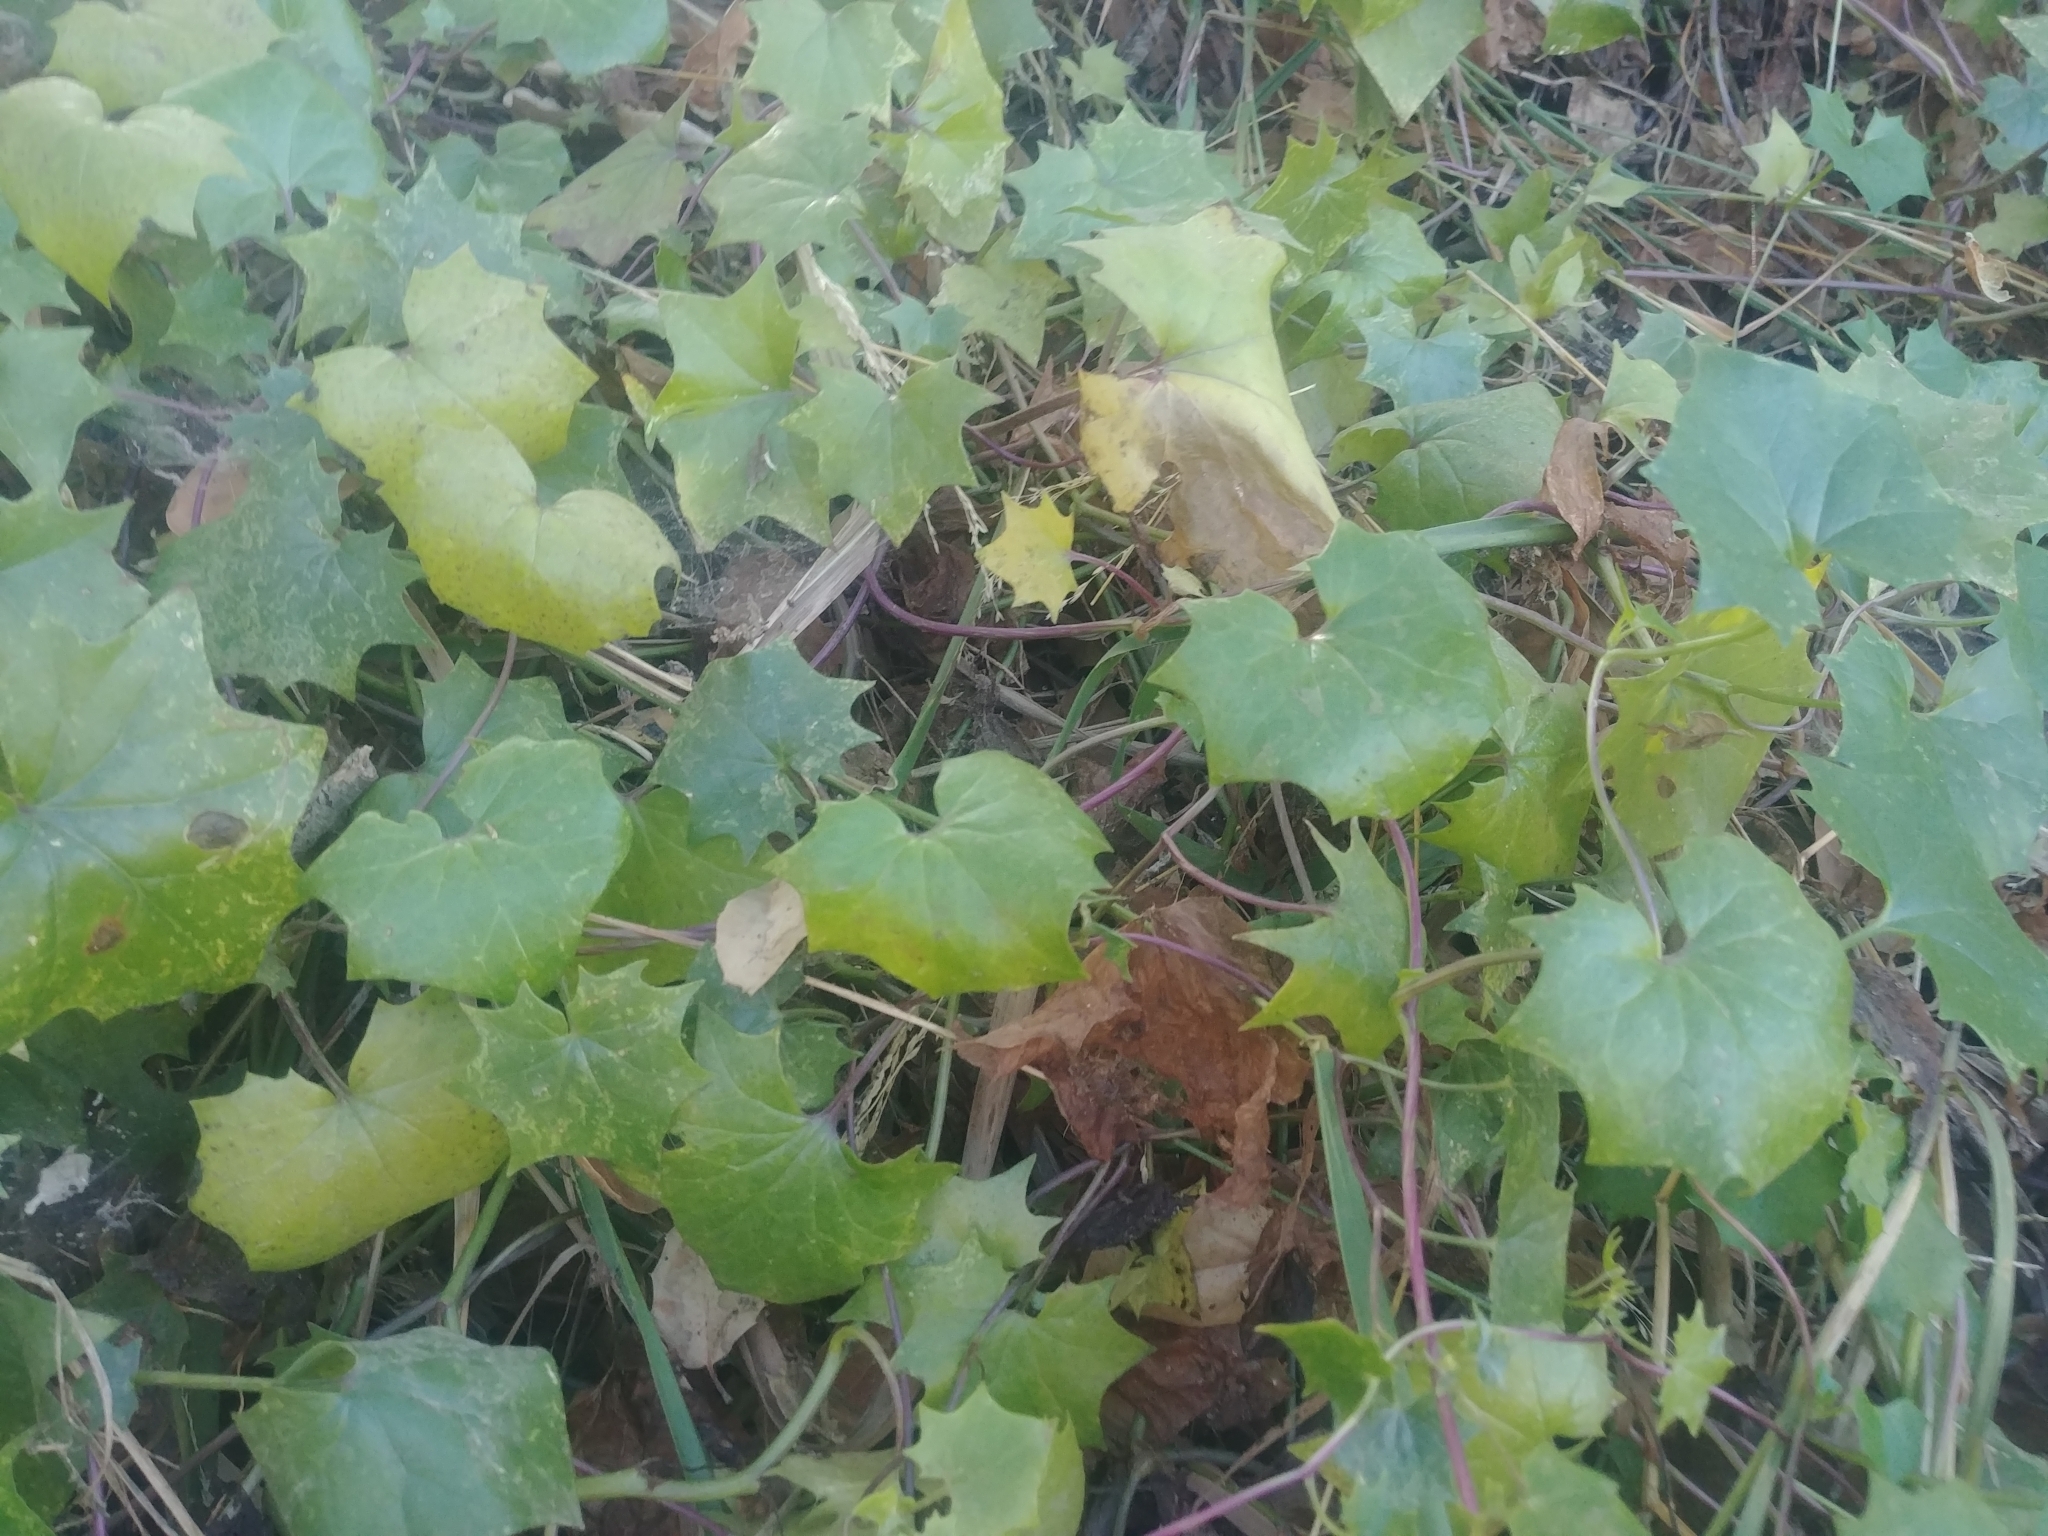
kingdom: Plantae
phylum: Tracheophyta
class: Magnoliopsida
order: Asterales
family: Asteraceae
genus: Delairea
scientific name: Delairea odorata
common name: Cape-ivy
